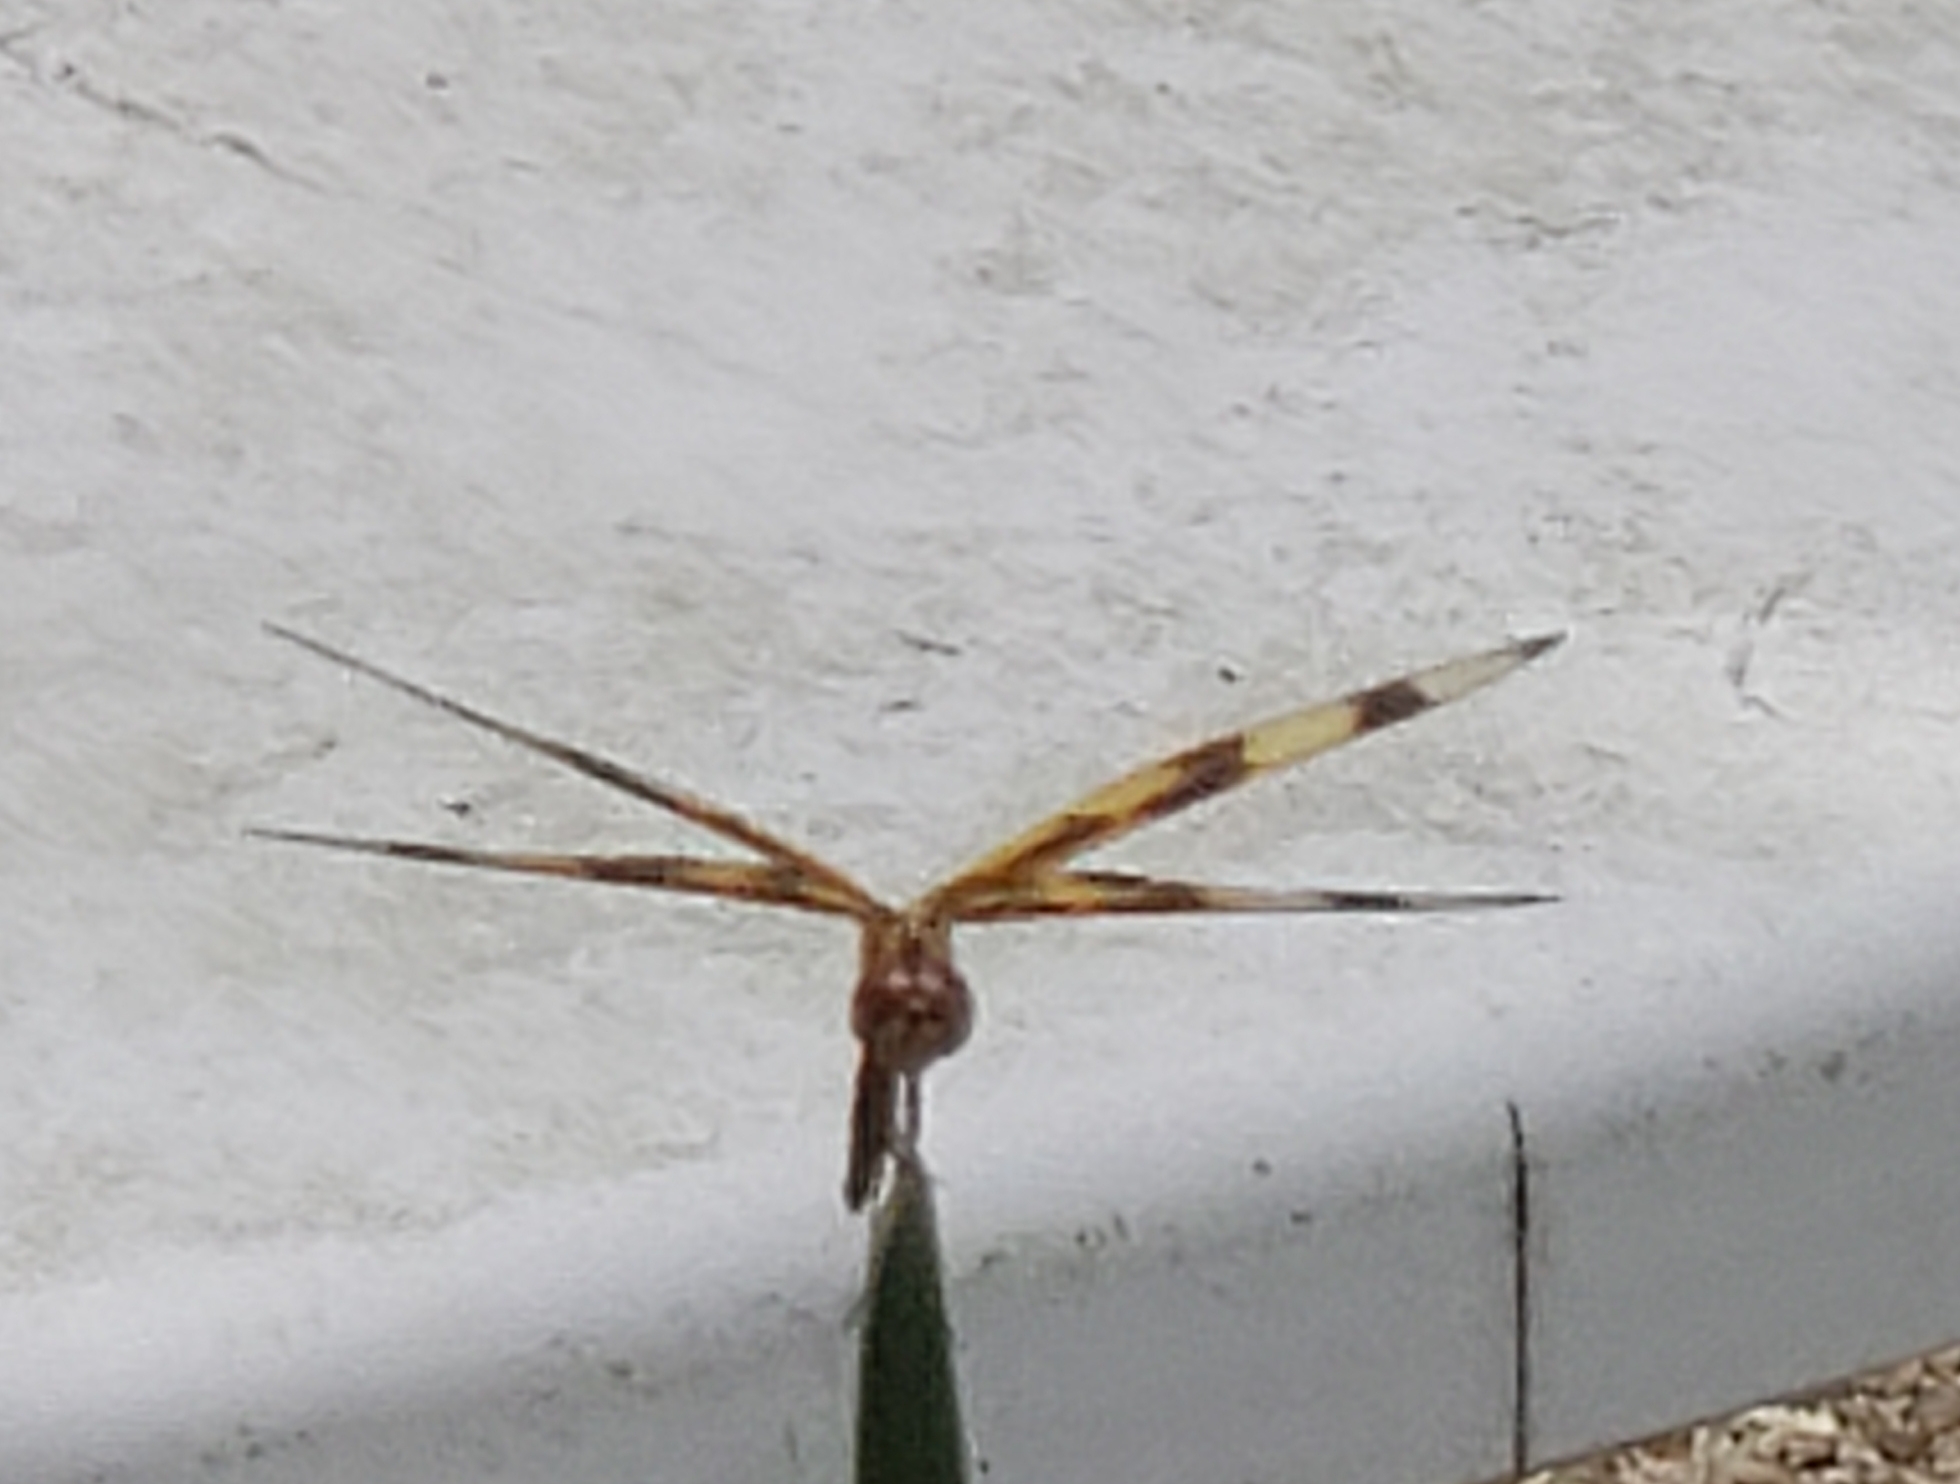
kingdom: Animalia
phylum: Arthropoda
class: Insecta
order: Odonata
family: Libellulidae
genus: Celithemis
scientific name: Celithemis eponina
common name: Halloween pennant
